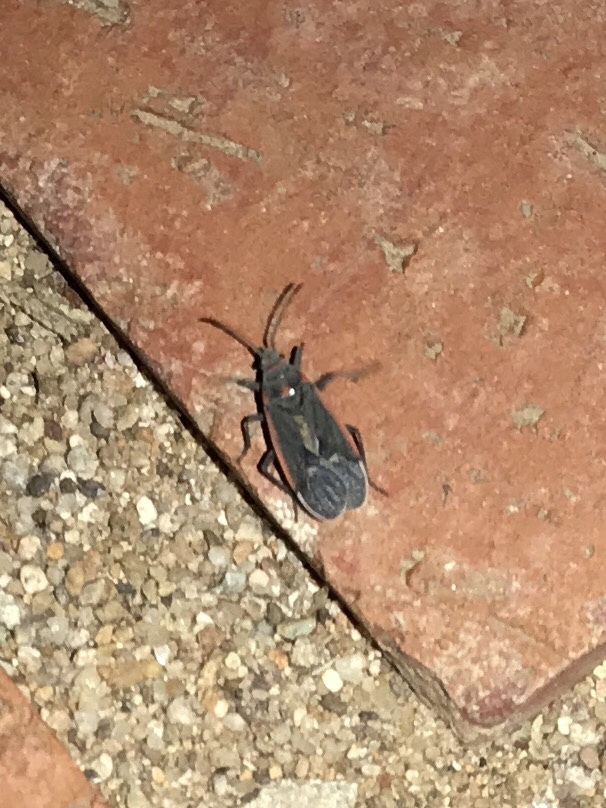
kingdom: Animalia
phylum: Arthropoda
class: Insecta
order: Hemiptera
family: Lygaeidae
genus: Melacoryphus
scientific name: Melacoryphus lateralis
